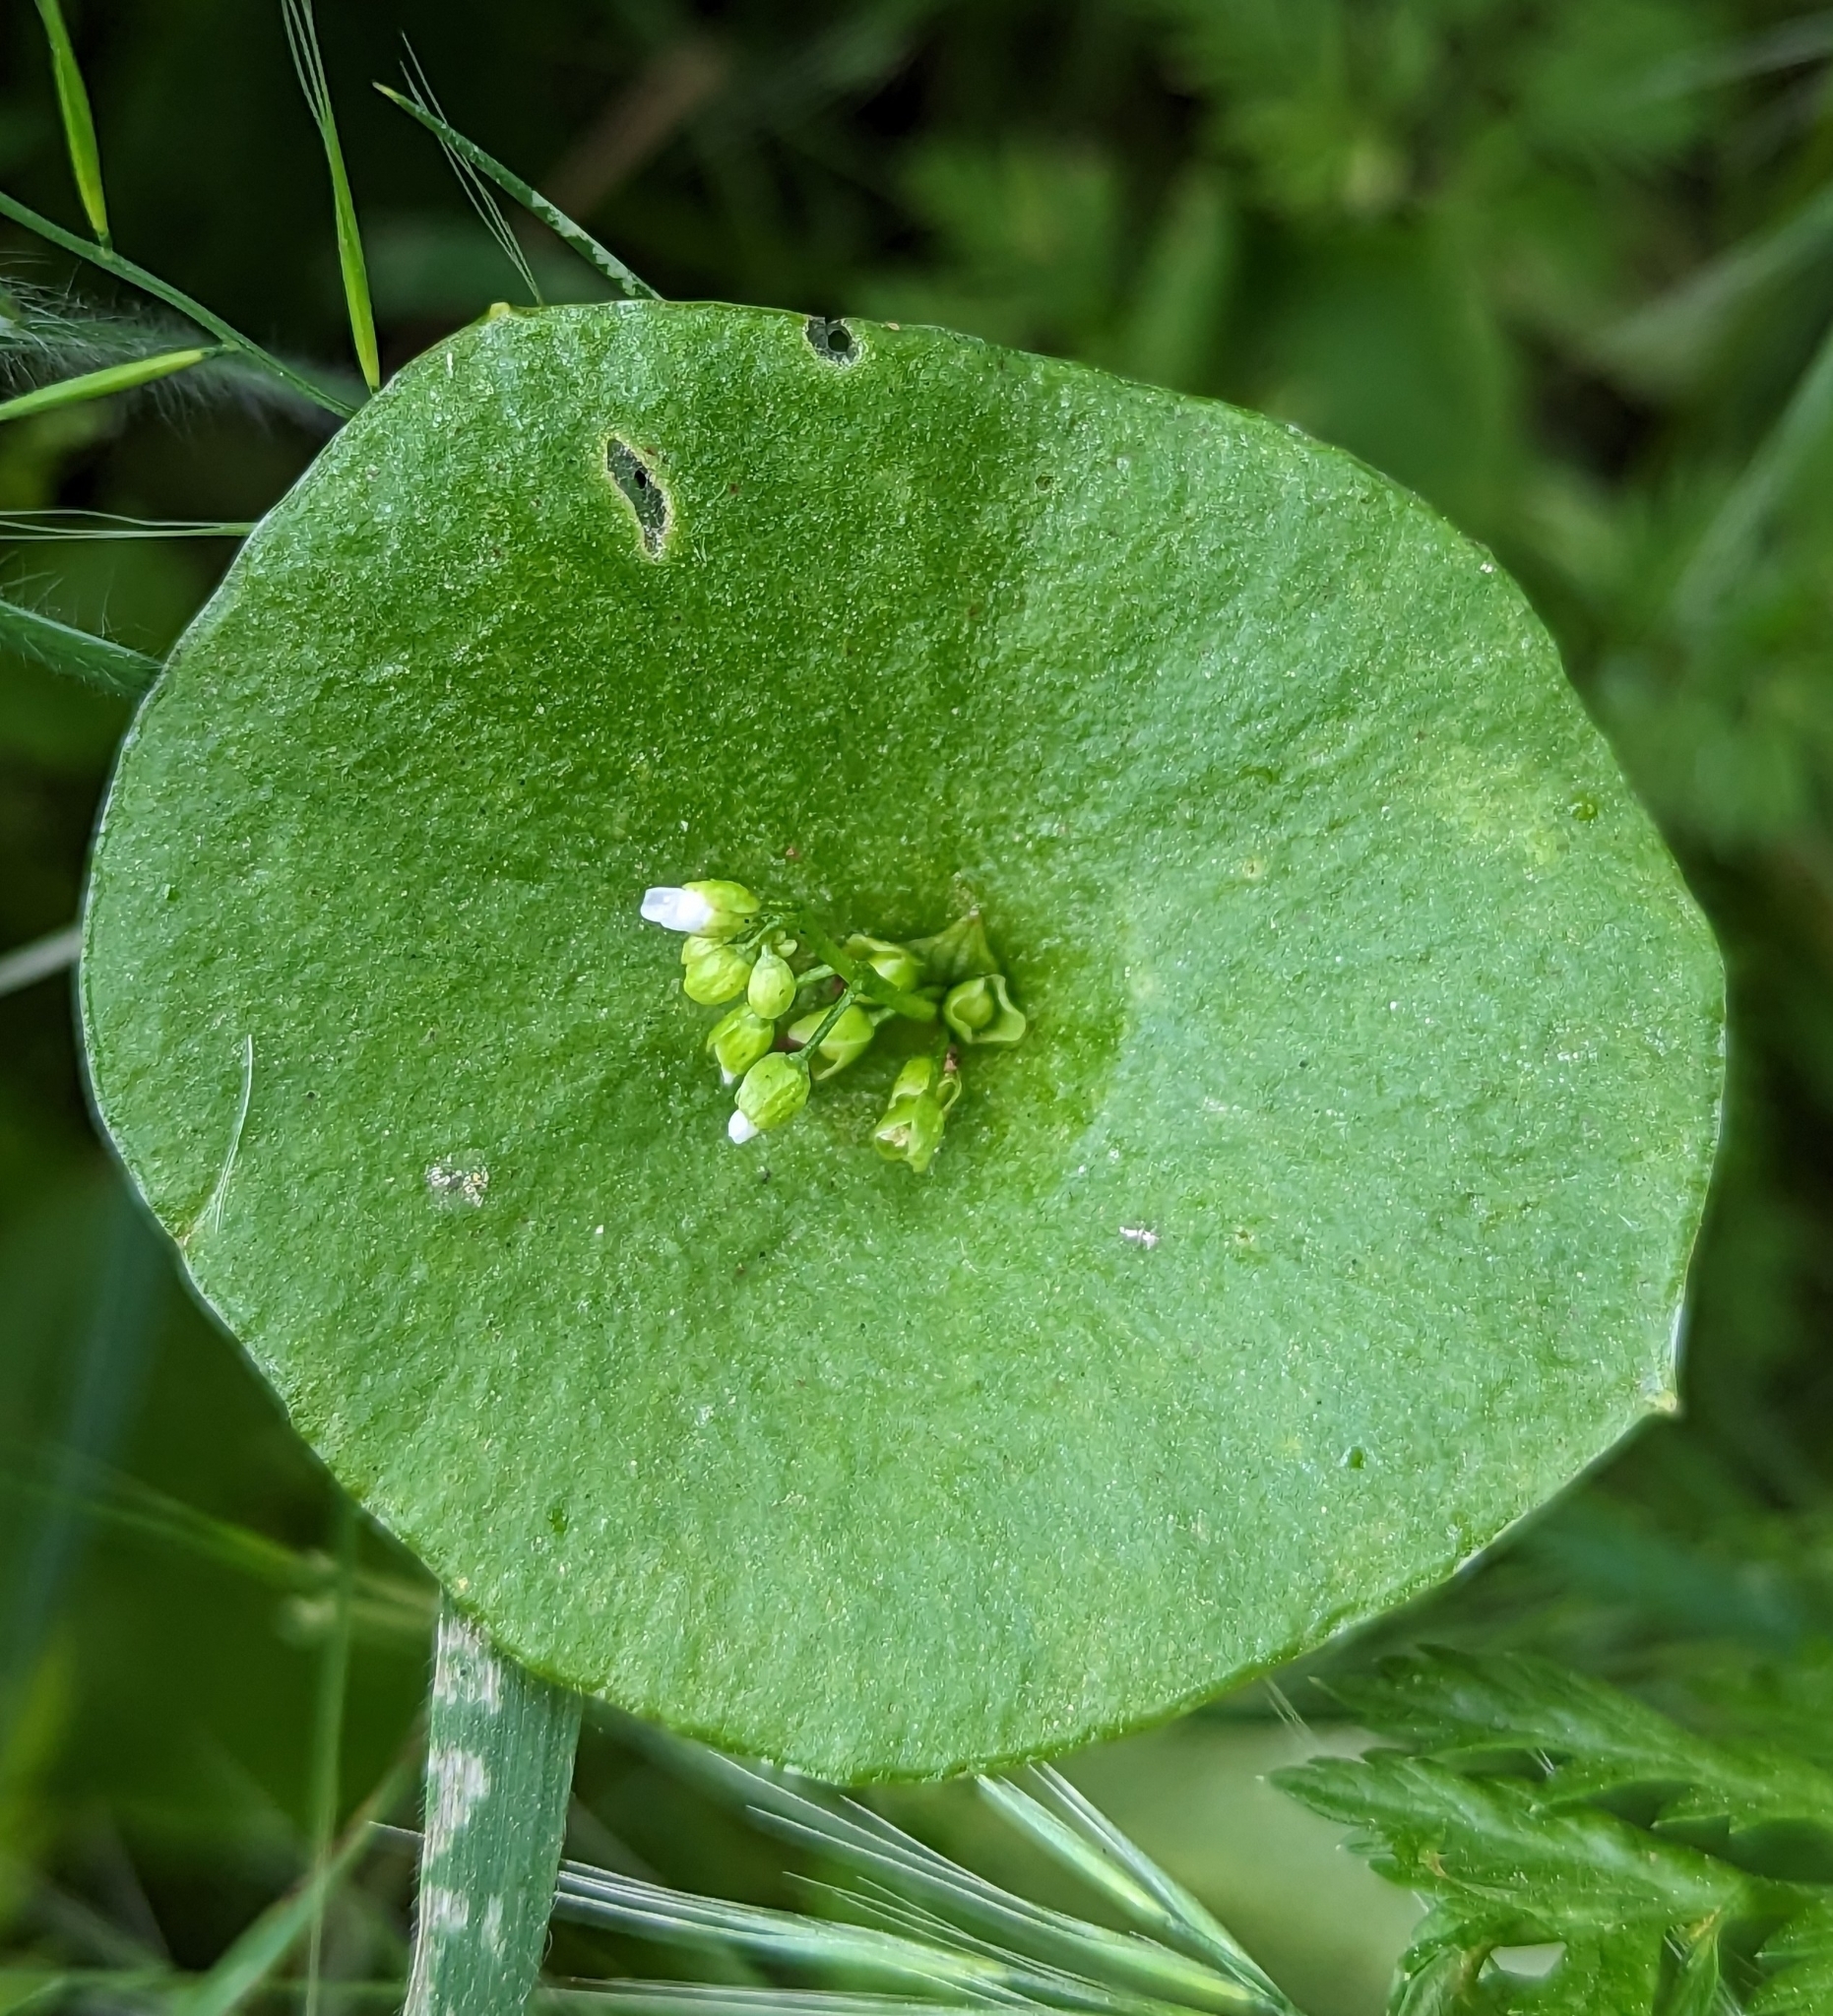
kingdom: Plantae
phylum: Tracheophyta
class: Magnoliopsida
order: Caryophyllales
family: Montiaceae
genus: Claytonia
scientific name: Claytonia perfoliata
